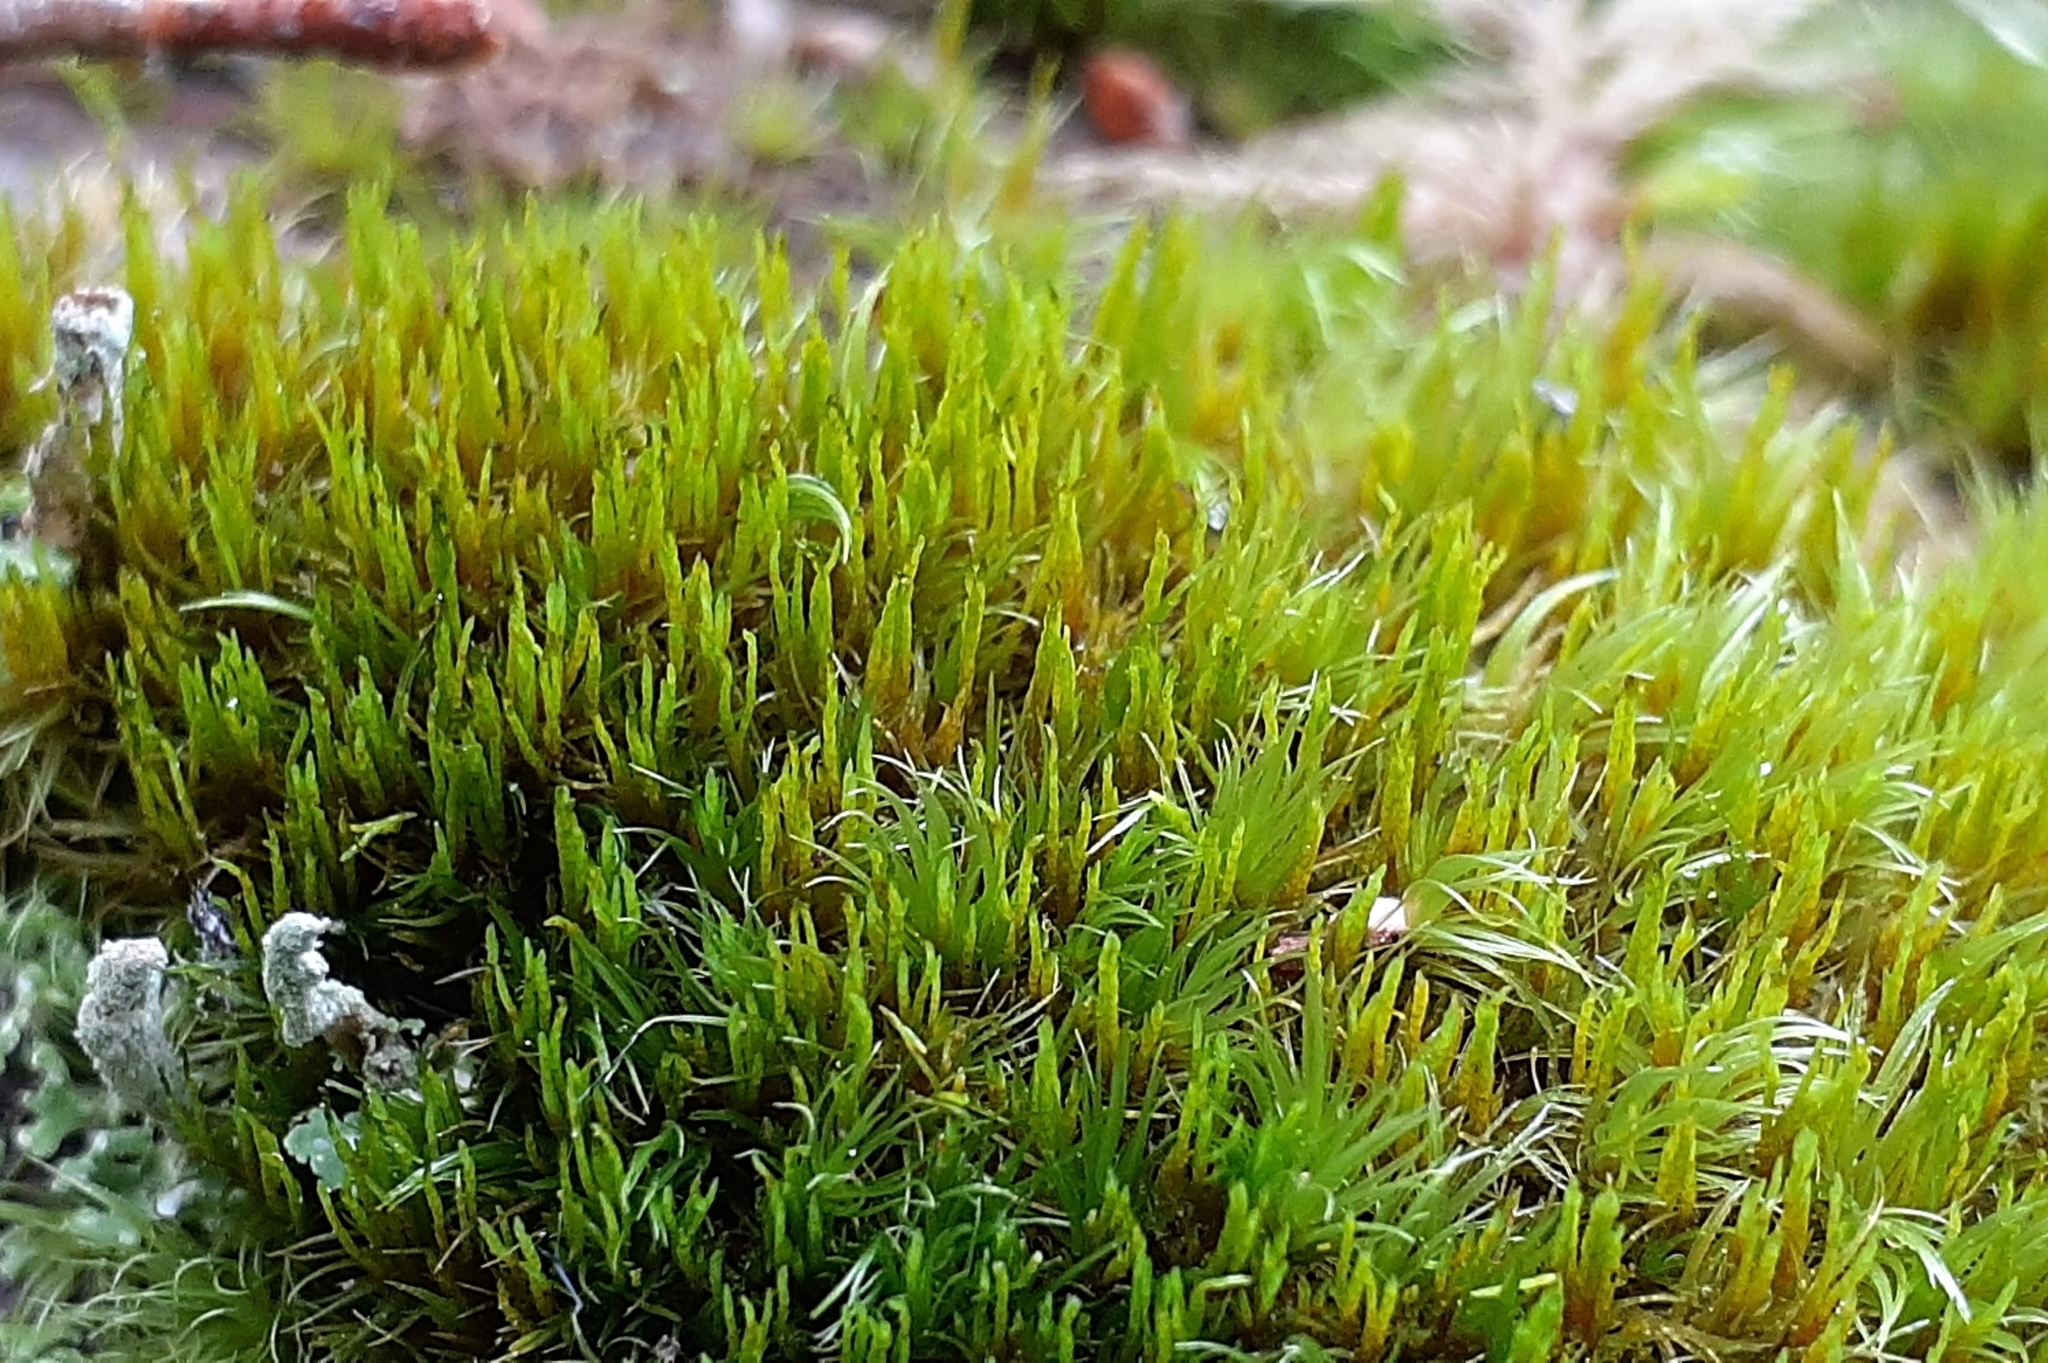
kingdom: Plantae
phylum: Bryophyta
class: Bryopsida
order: Dicranales
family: Dicranaceae
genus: Orthodicranum
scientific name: Orthodicranum flagellare
